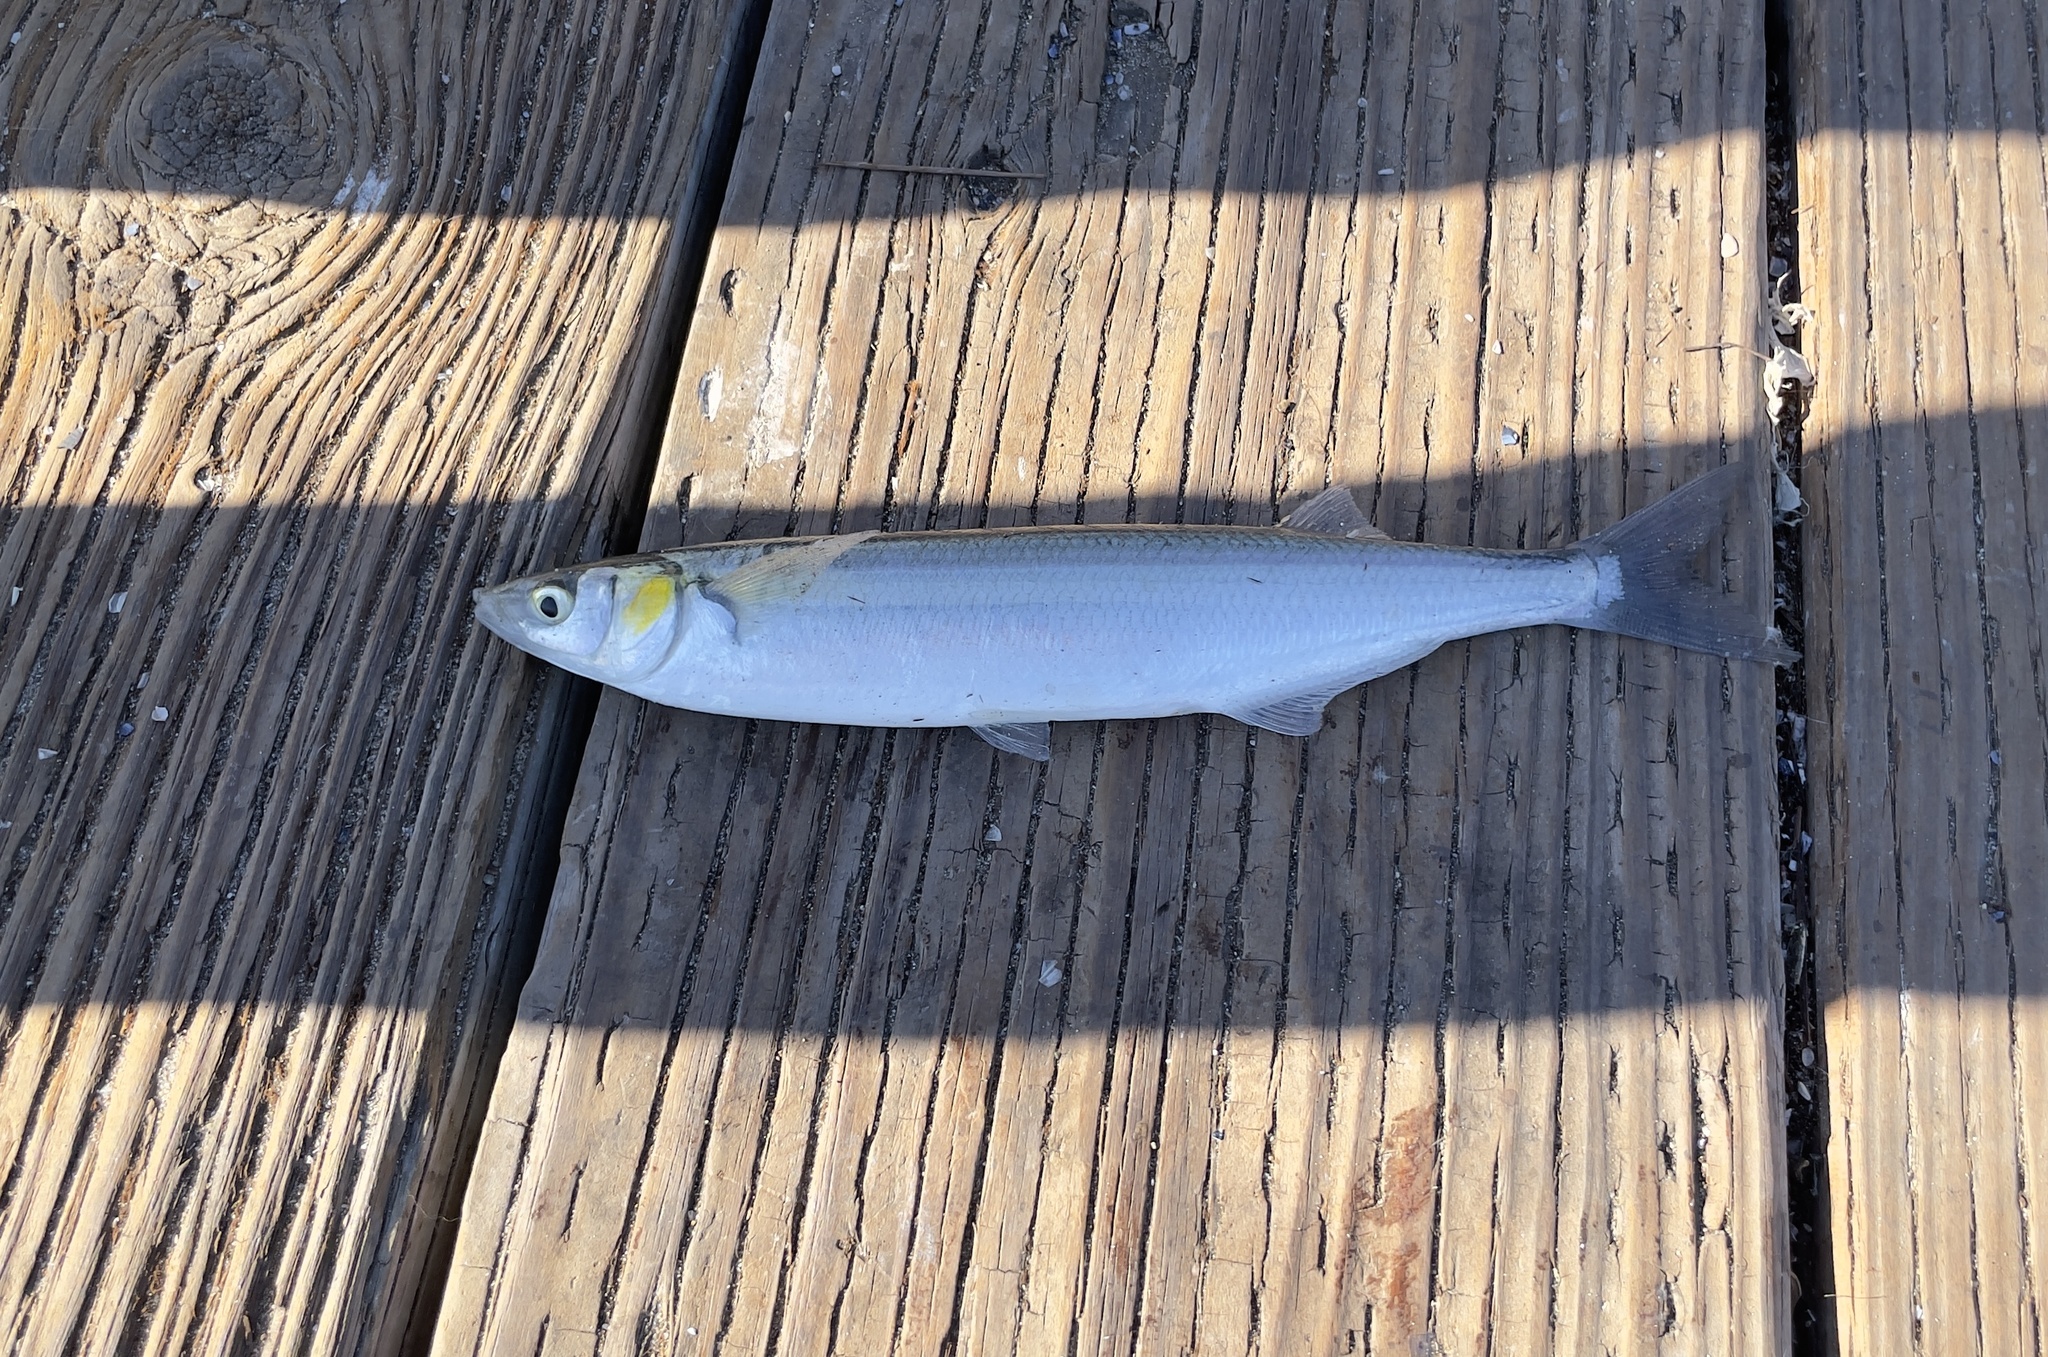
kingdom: Animalia
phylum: Chordata
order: Atheriniformes
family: Atherinopsidae
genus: Atherinopsis
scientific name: Atherinopsis californiensis
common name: Jack silverside
